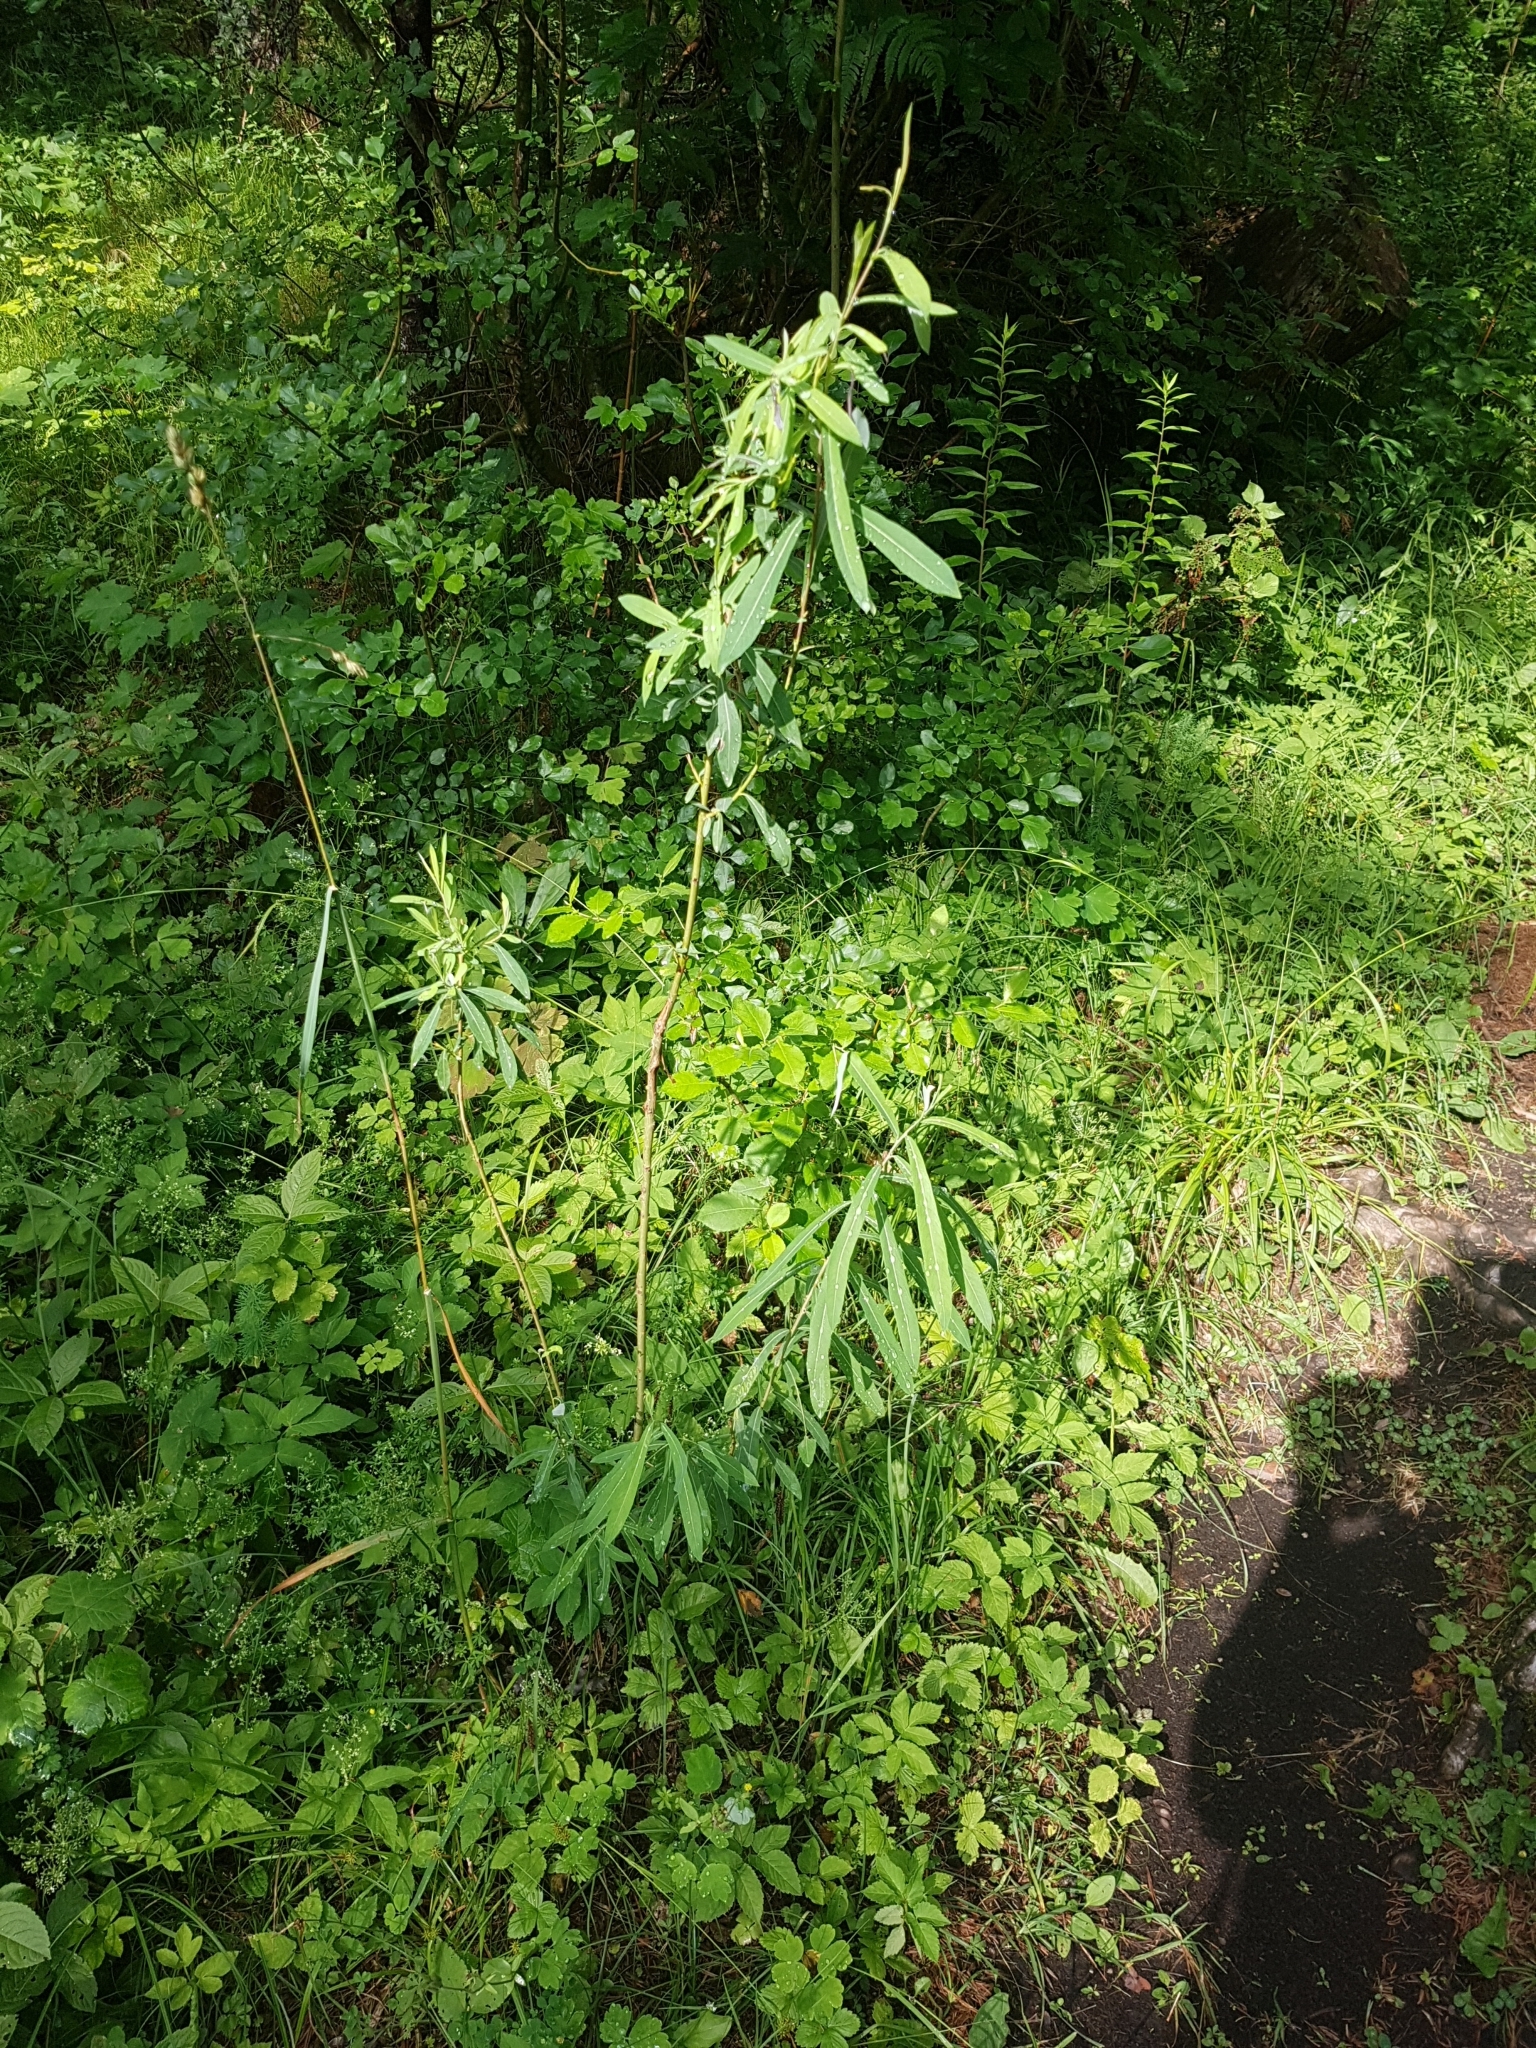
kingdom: Plantae
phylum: Tracheophyta
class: Magnoliopsida
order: Malvales
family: Thymelaeaceae
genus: Daphne
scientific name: Daphne mezereum
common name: Mezereon
